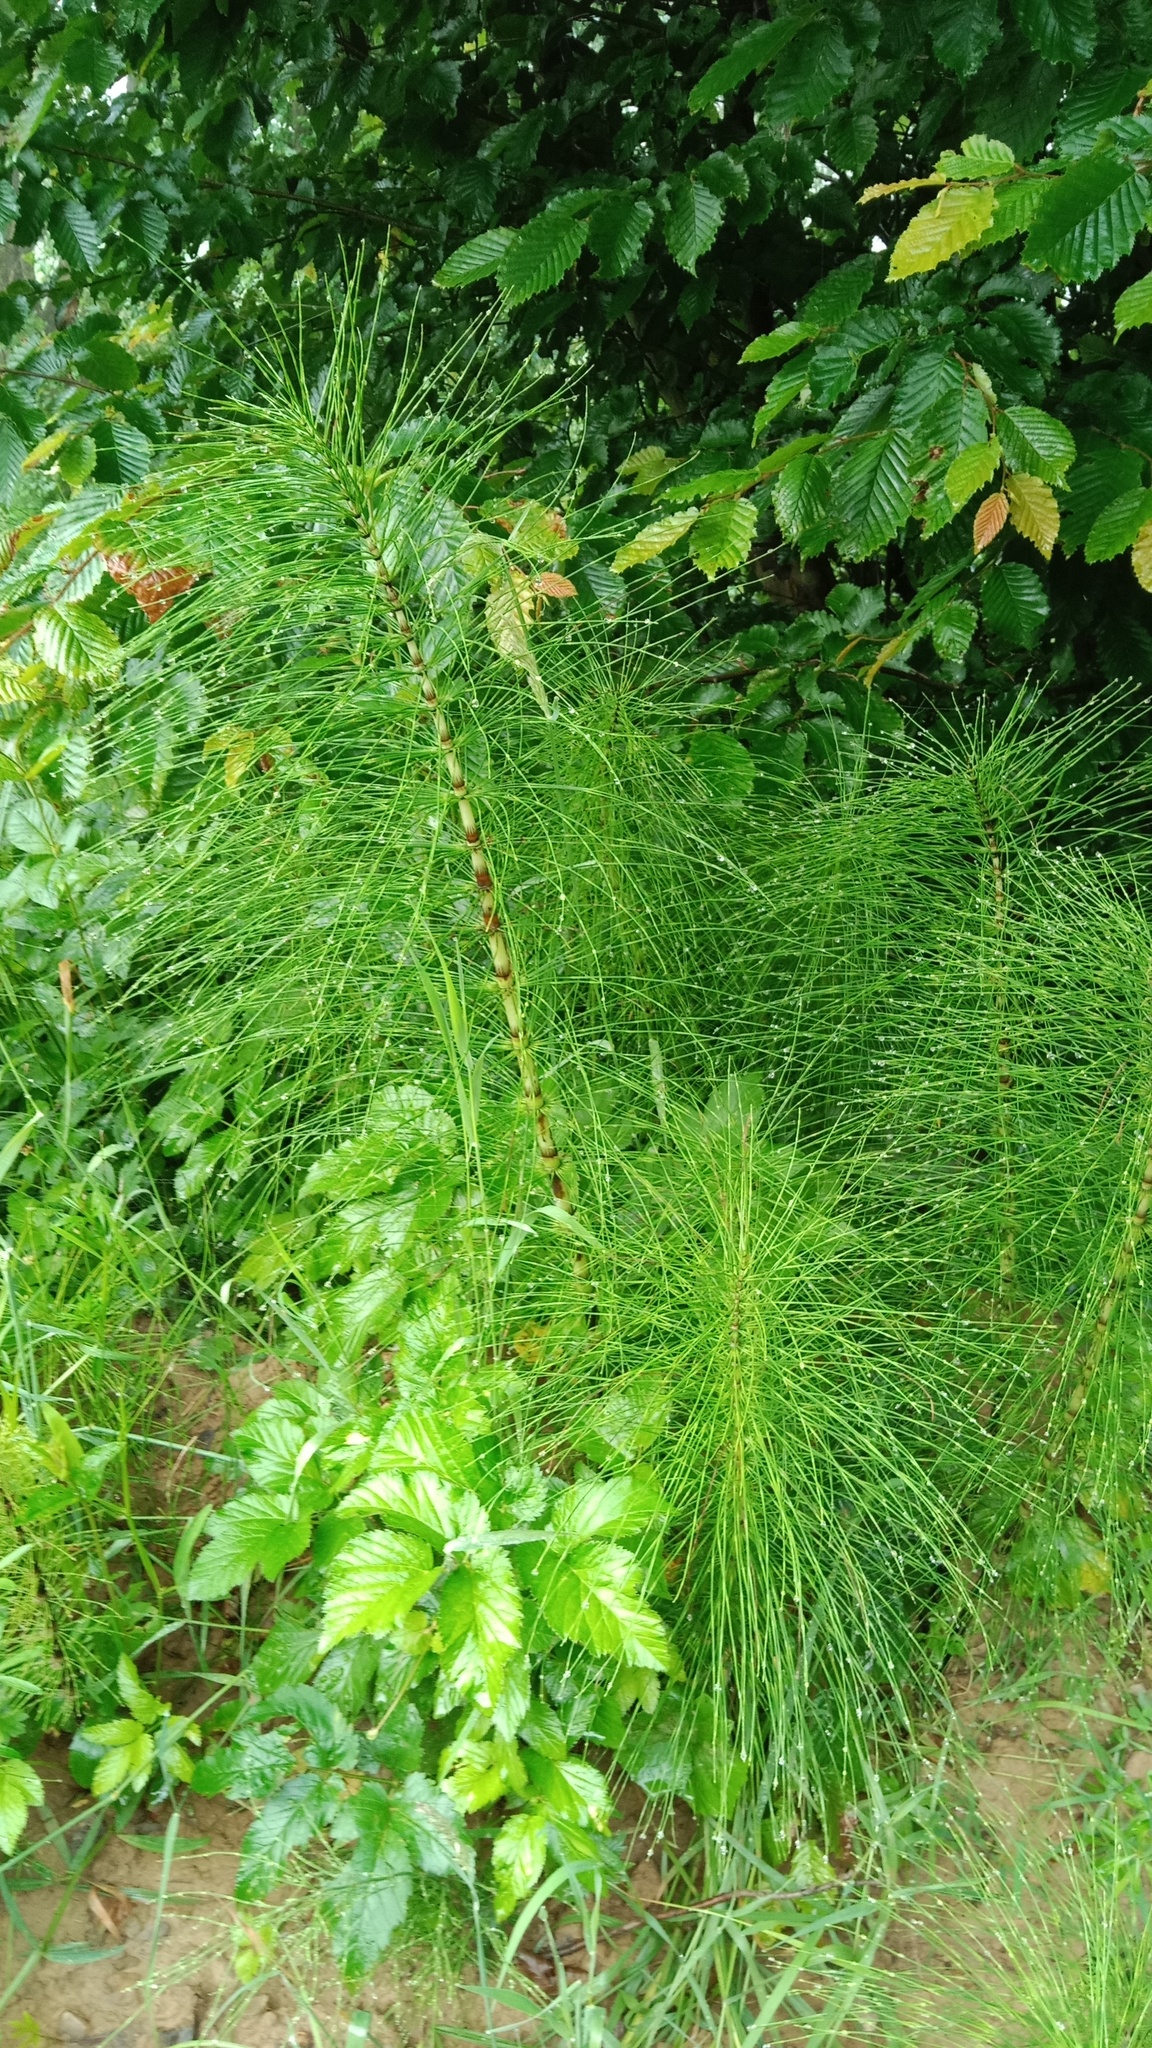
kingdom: Plantae
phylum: Tracheophyta
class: Polypodiopsida
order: Equisetales
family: Equisetaceae
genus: Equisetum
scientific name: Equisetum telmateia
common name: Great horsetail
